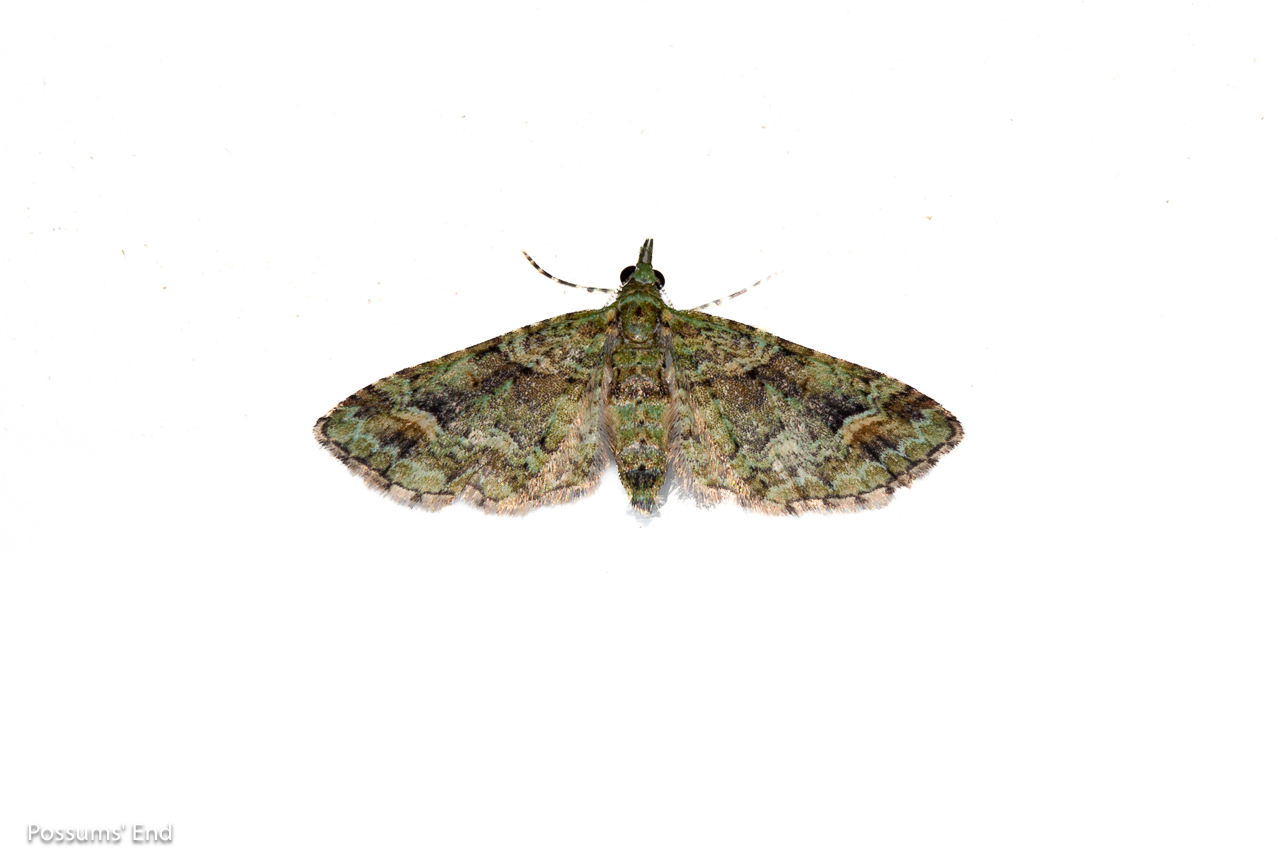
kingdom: Animalia
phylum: Arthropoda
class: Insecta
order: Lepidoptera
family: Geometridae
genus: Idaea
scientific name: Idaea mutanda
